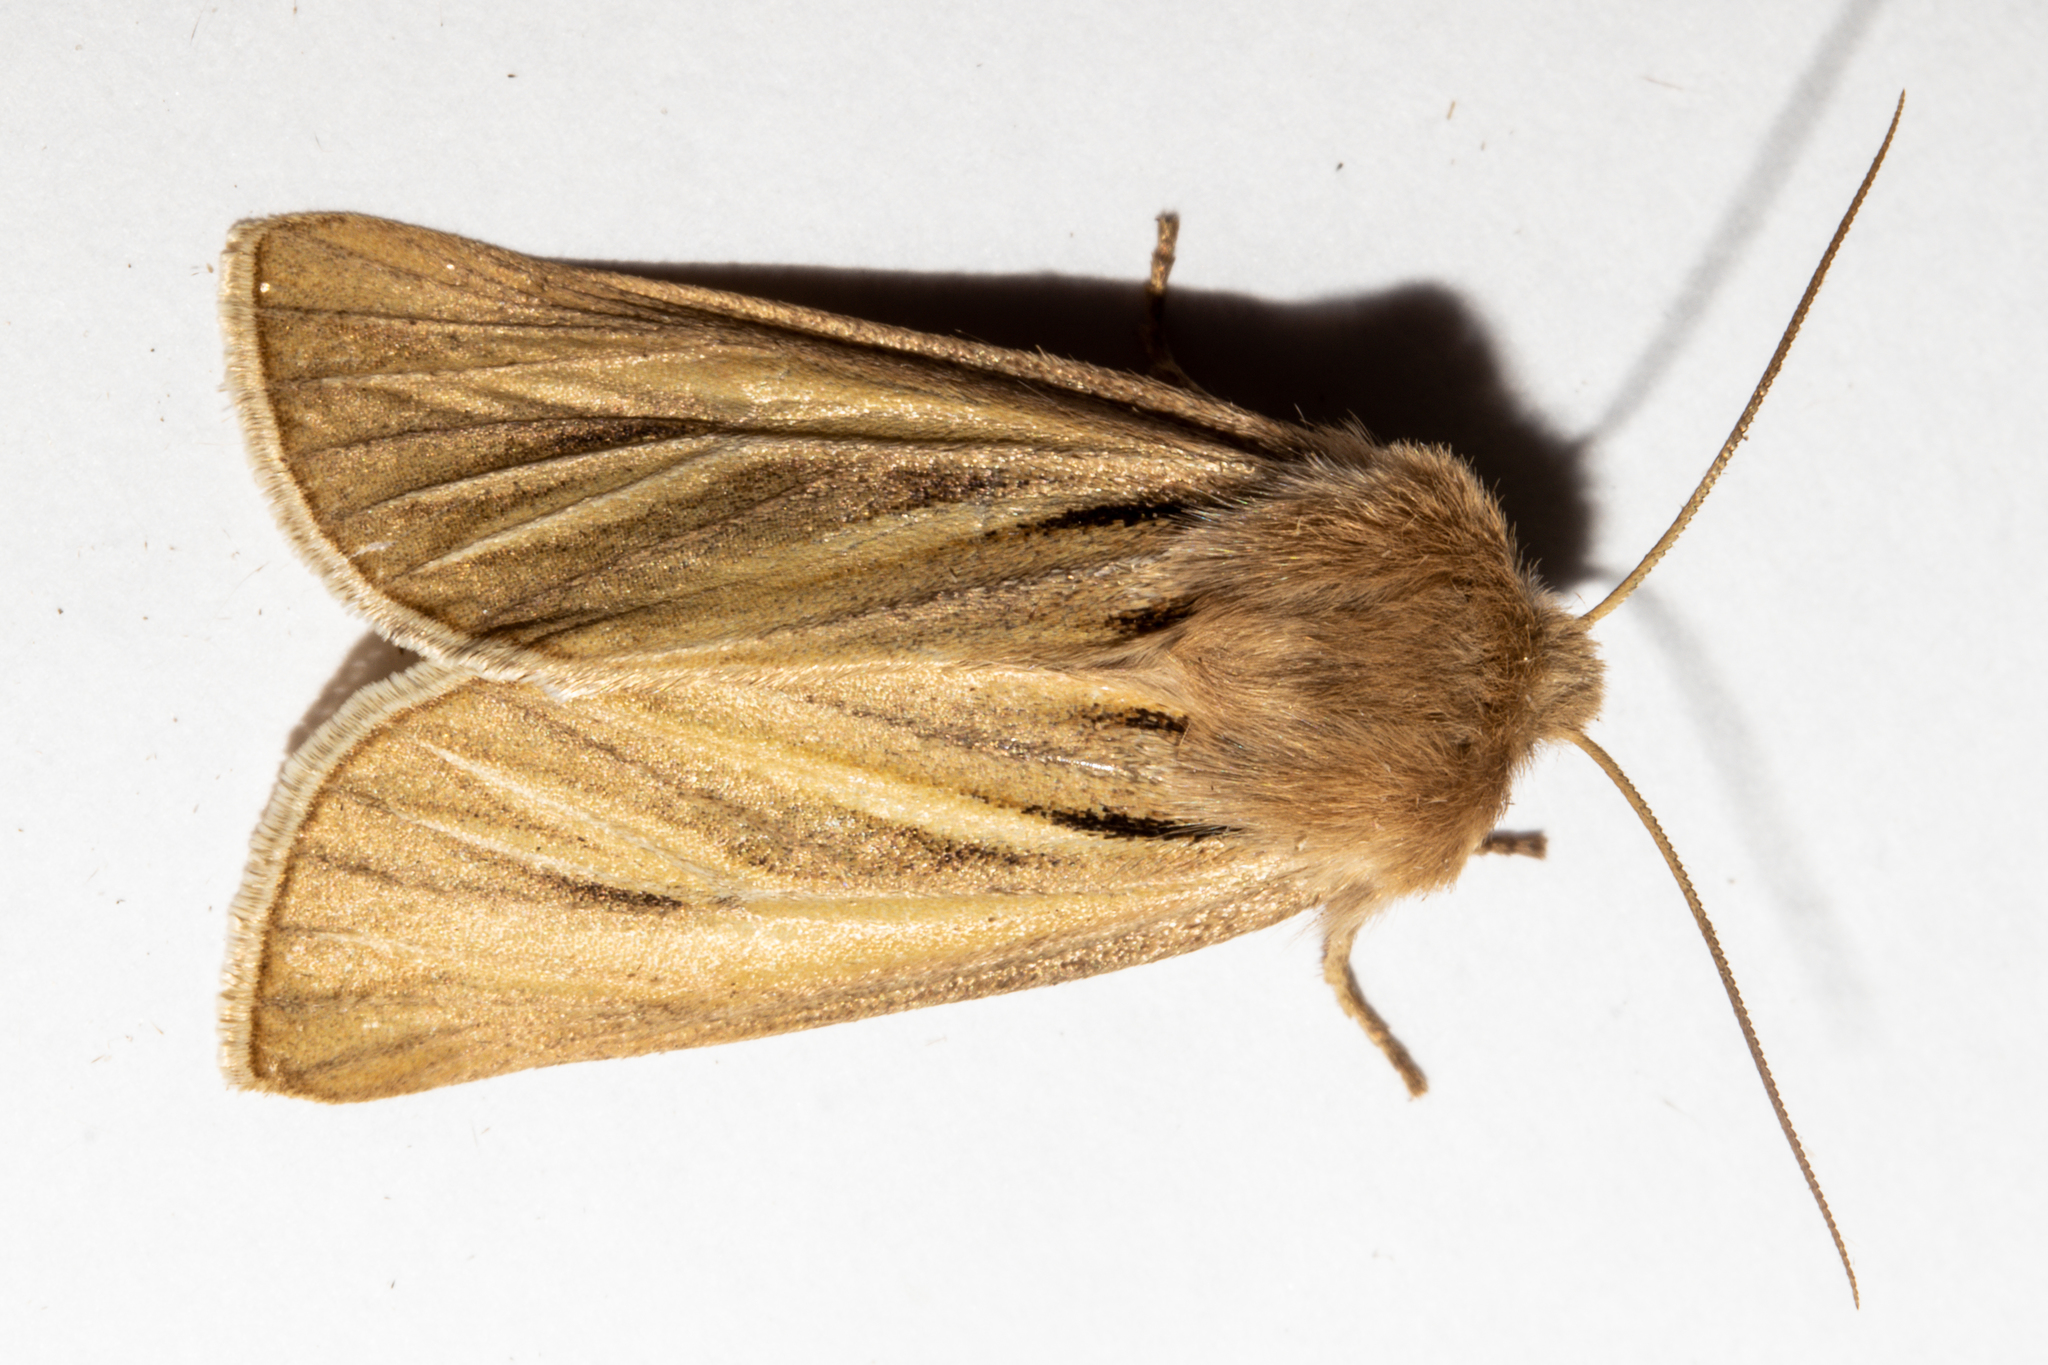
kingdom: Animalia
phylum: Arthropoda
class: Insecta
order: Lepidoptera
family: Noctuidae
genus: Ichneutica
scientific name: Ichneutica caraunias
